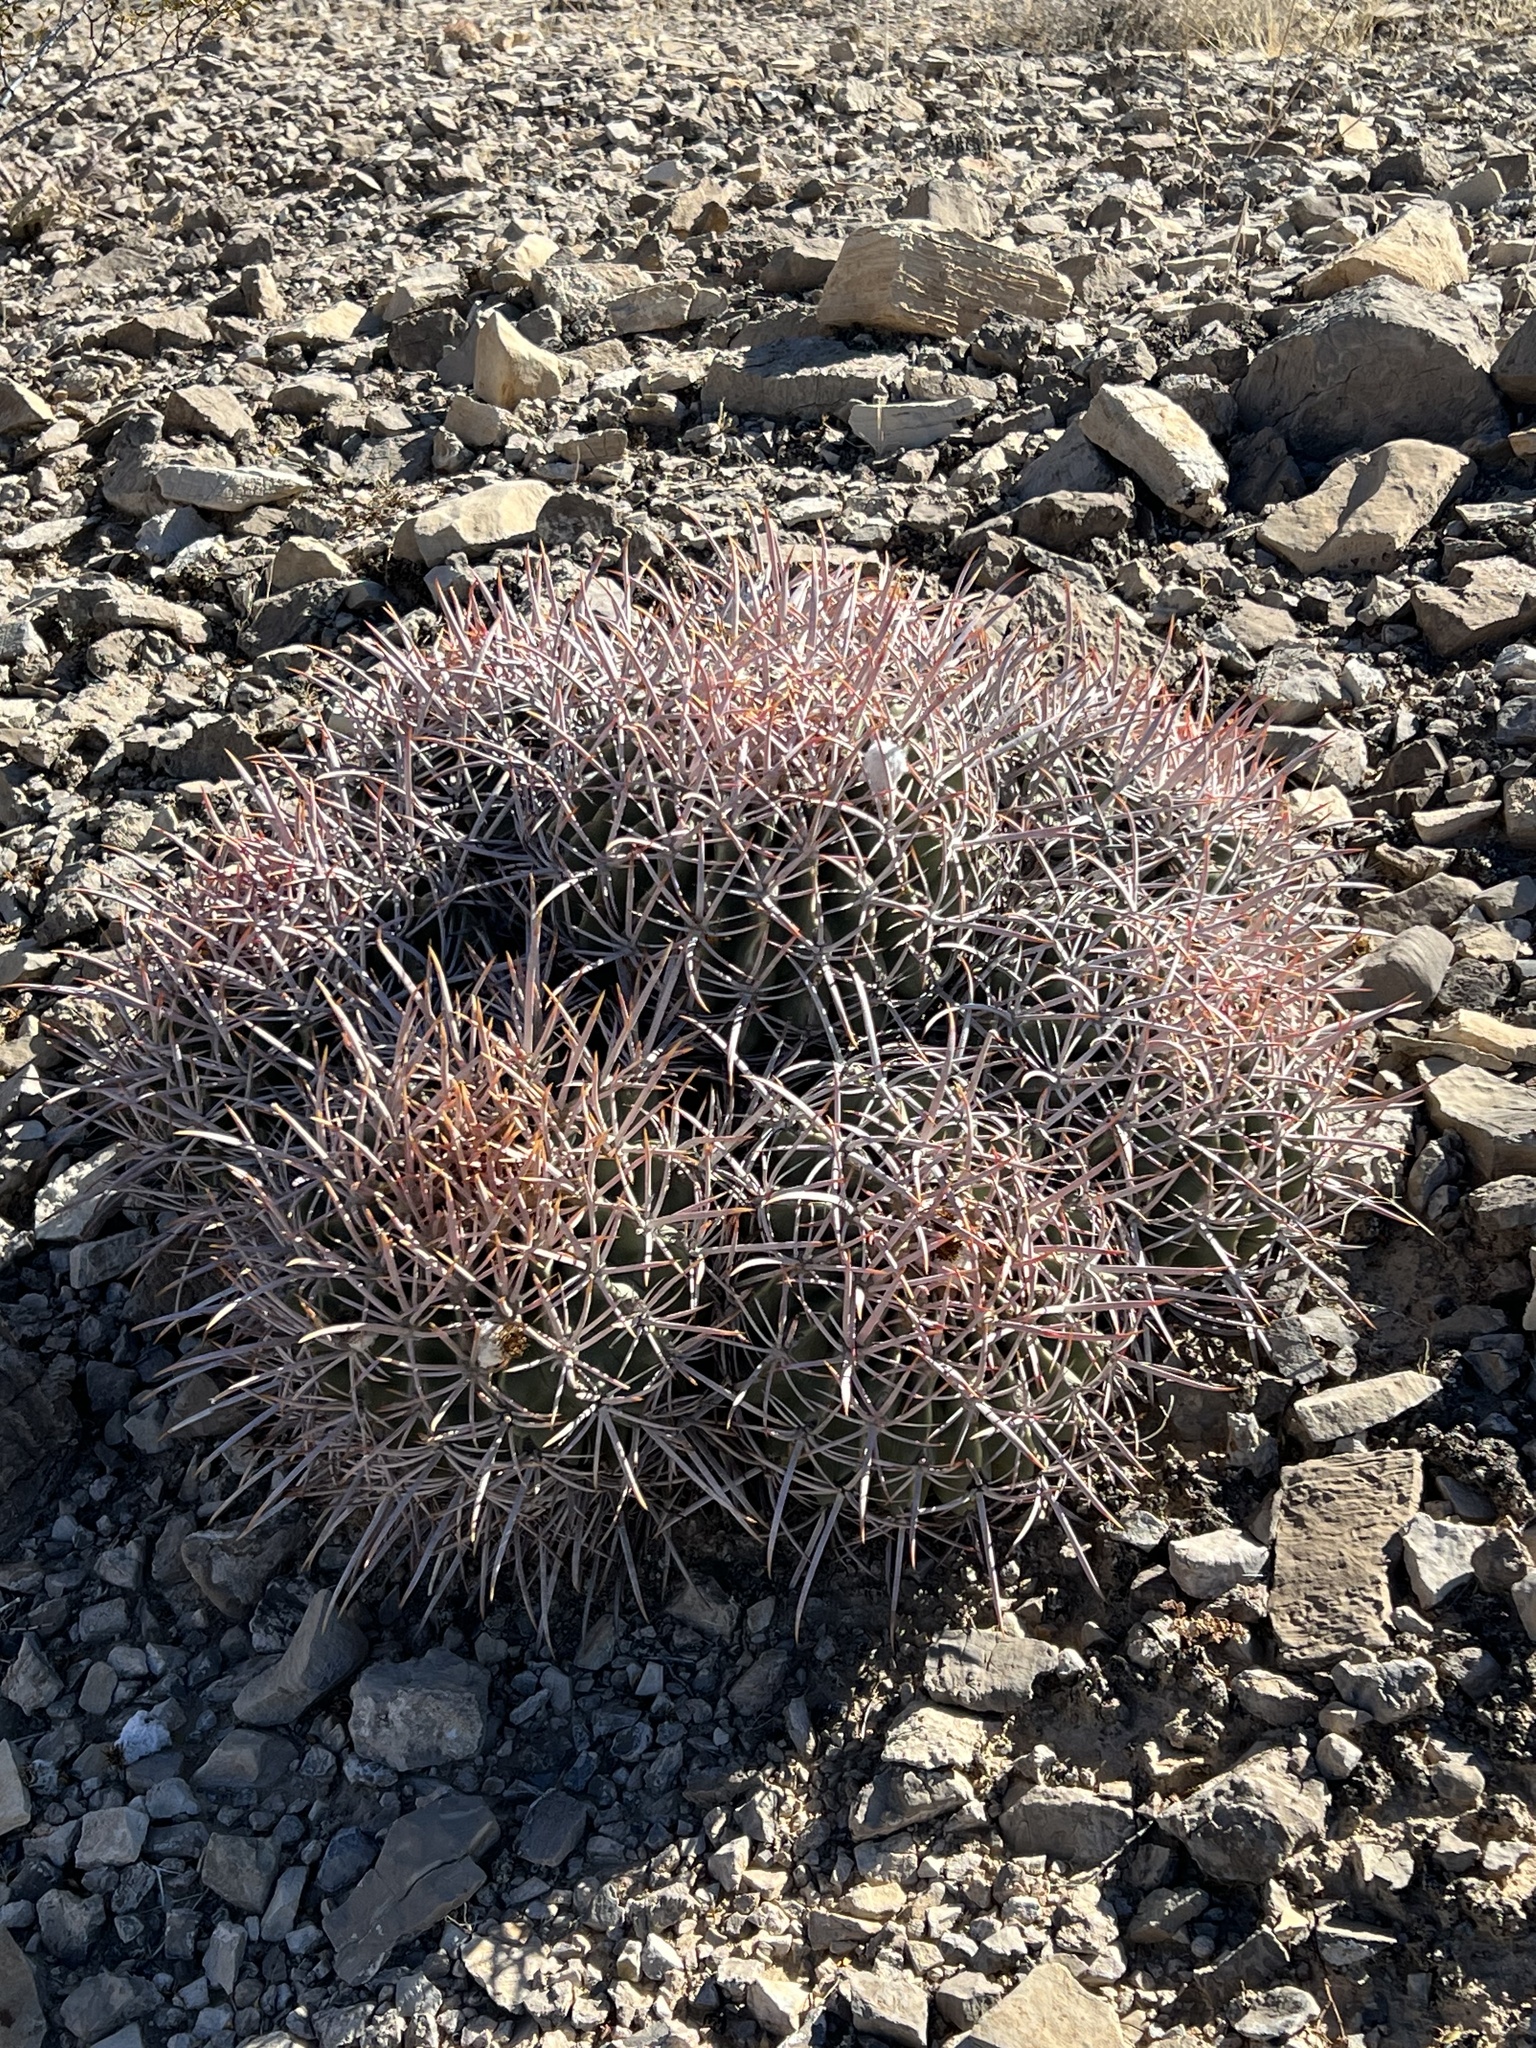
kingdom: Plantae
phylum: Tracheophyta
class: Magnoliopsida
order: Caryophyllales
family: Cactaceae
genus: Echinocactus
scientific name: Echinocactus polycephalus
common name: Cottontop cactus
